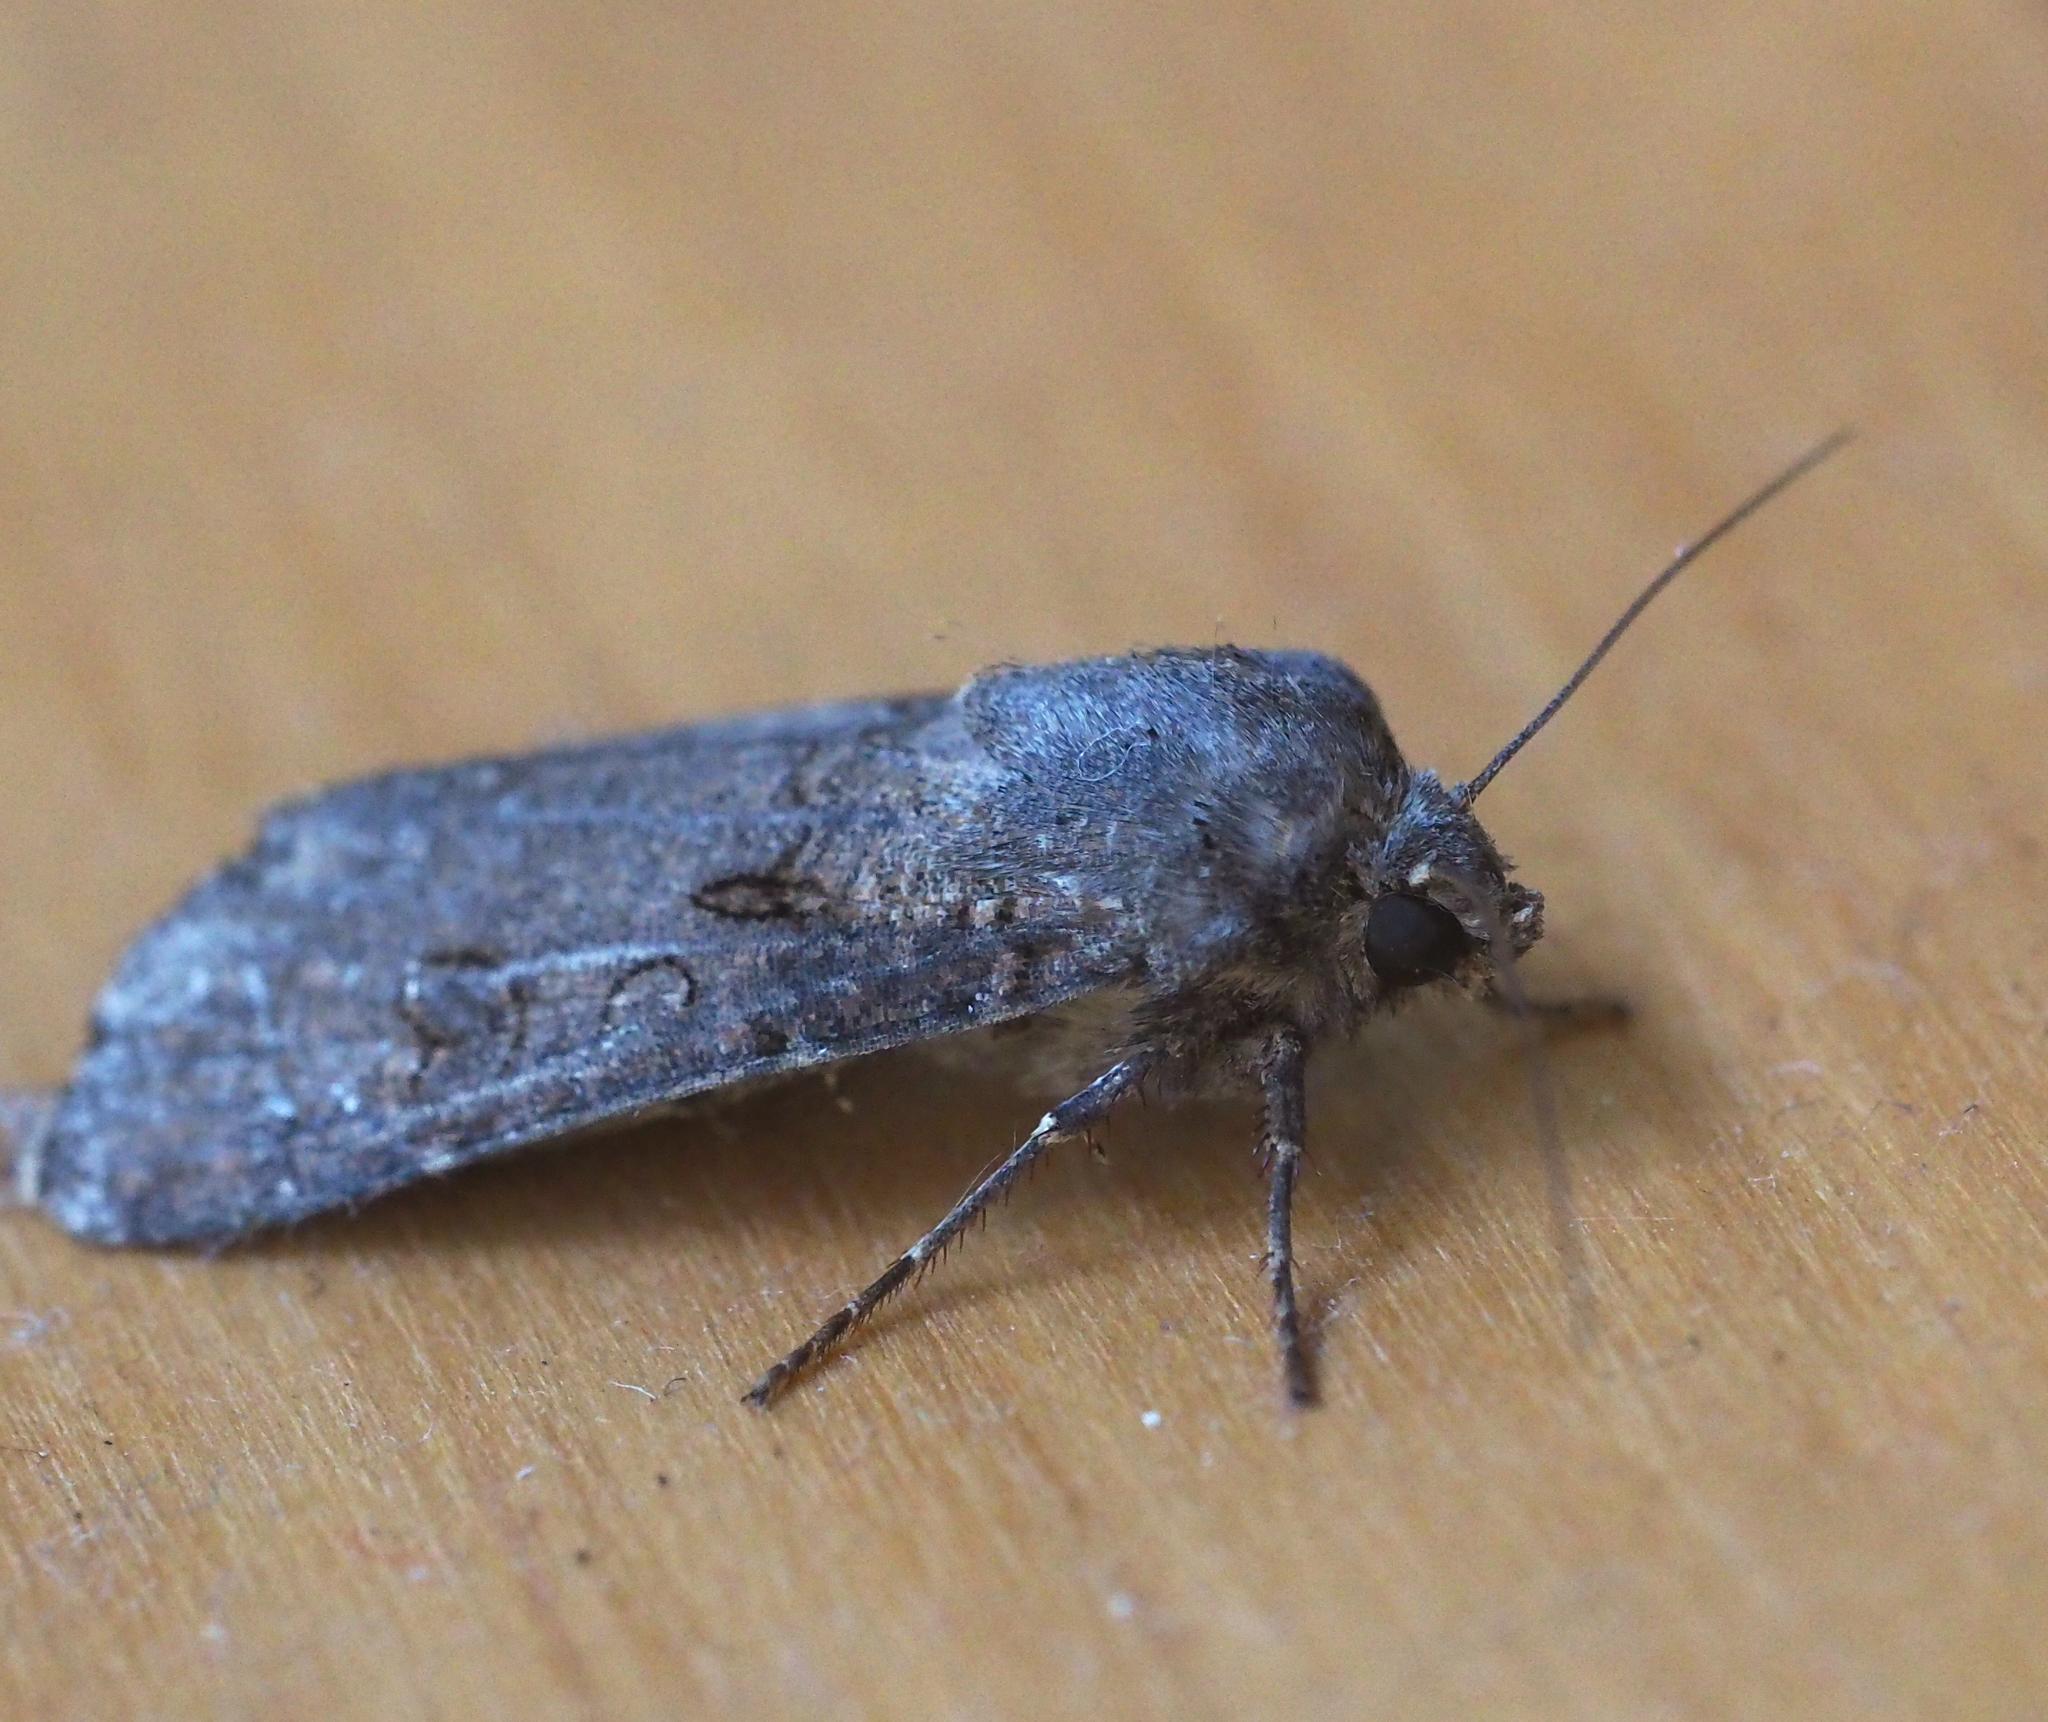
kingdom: Animalia
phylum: Arthropoda
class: Insecta
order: Lepidoptera
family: Noctuidae
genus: Agrotis
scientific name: Agrotis segetum
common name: Turnip moth
